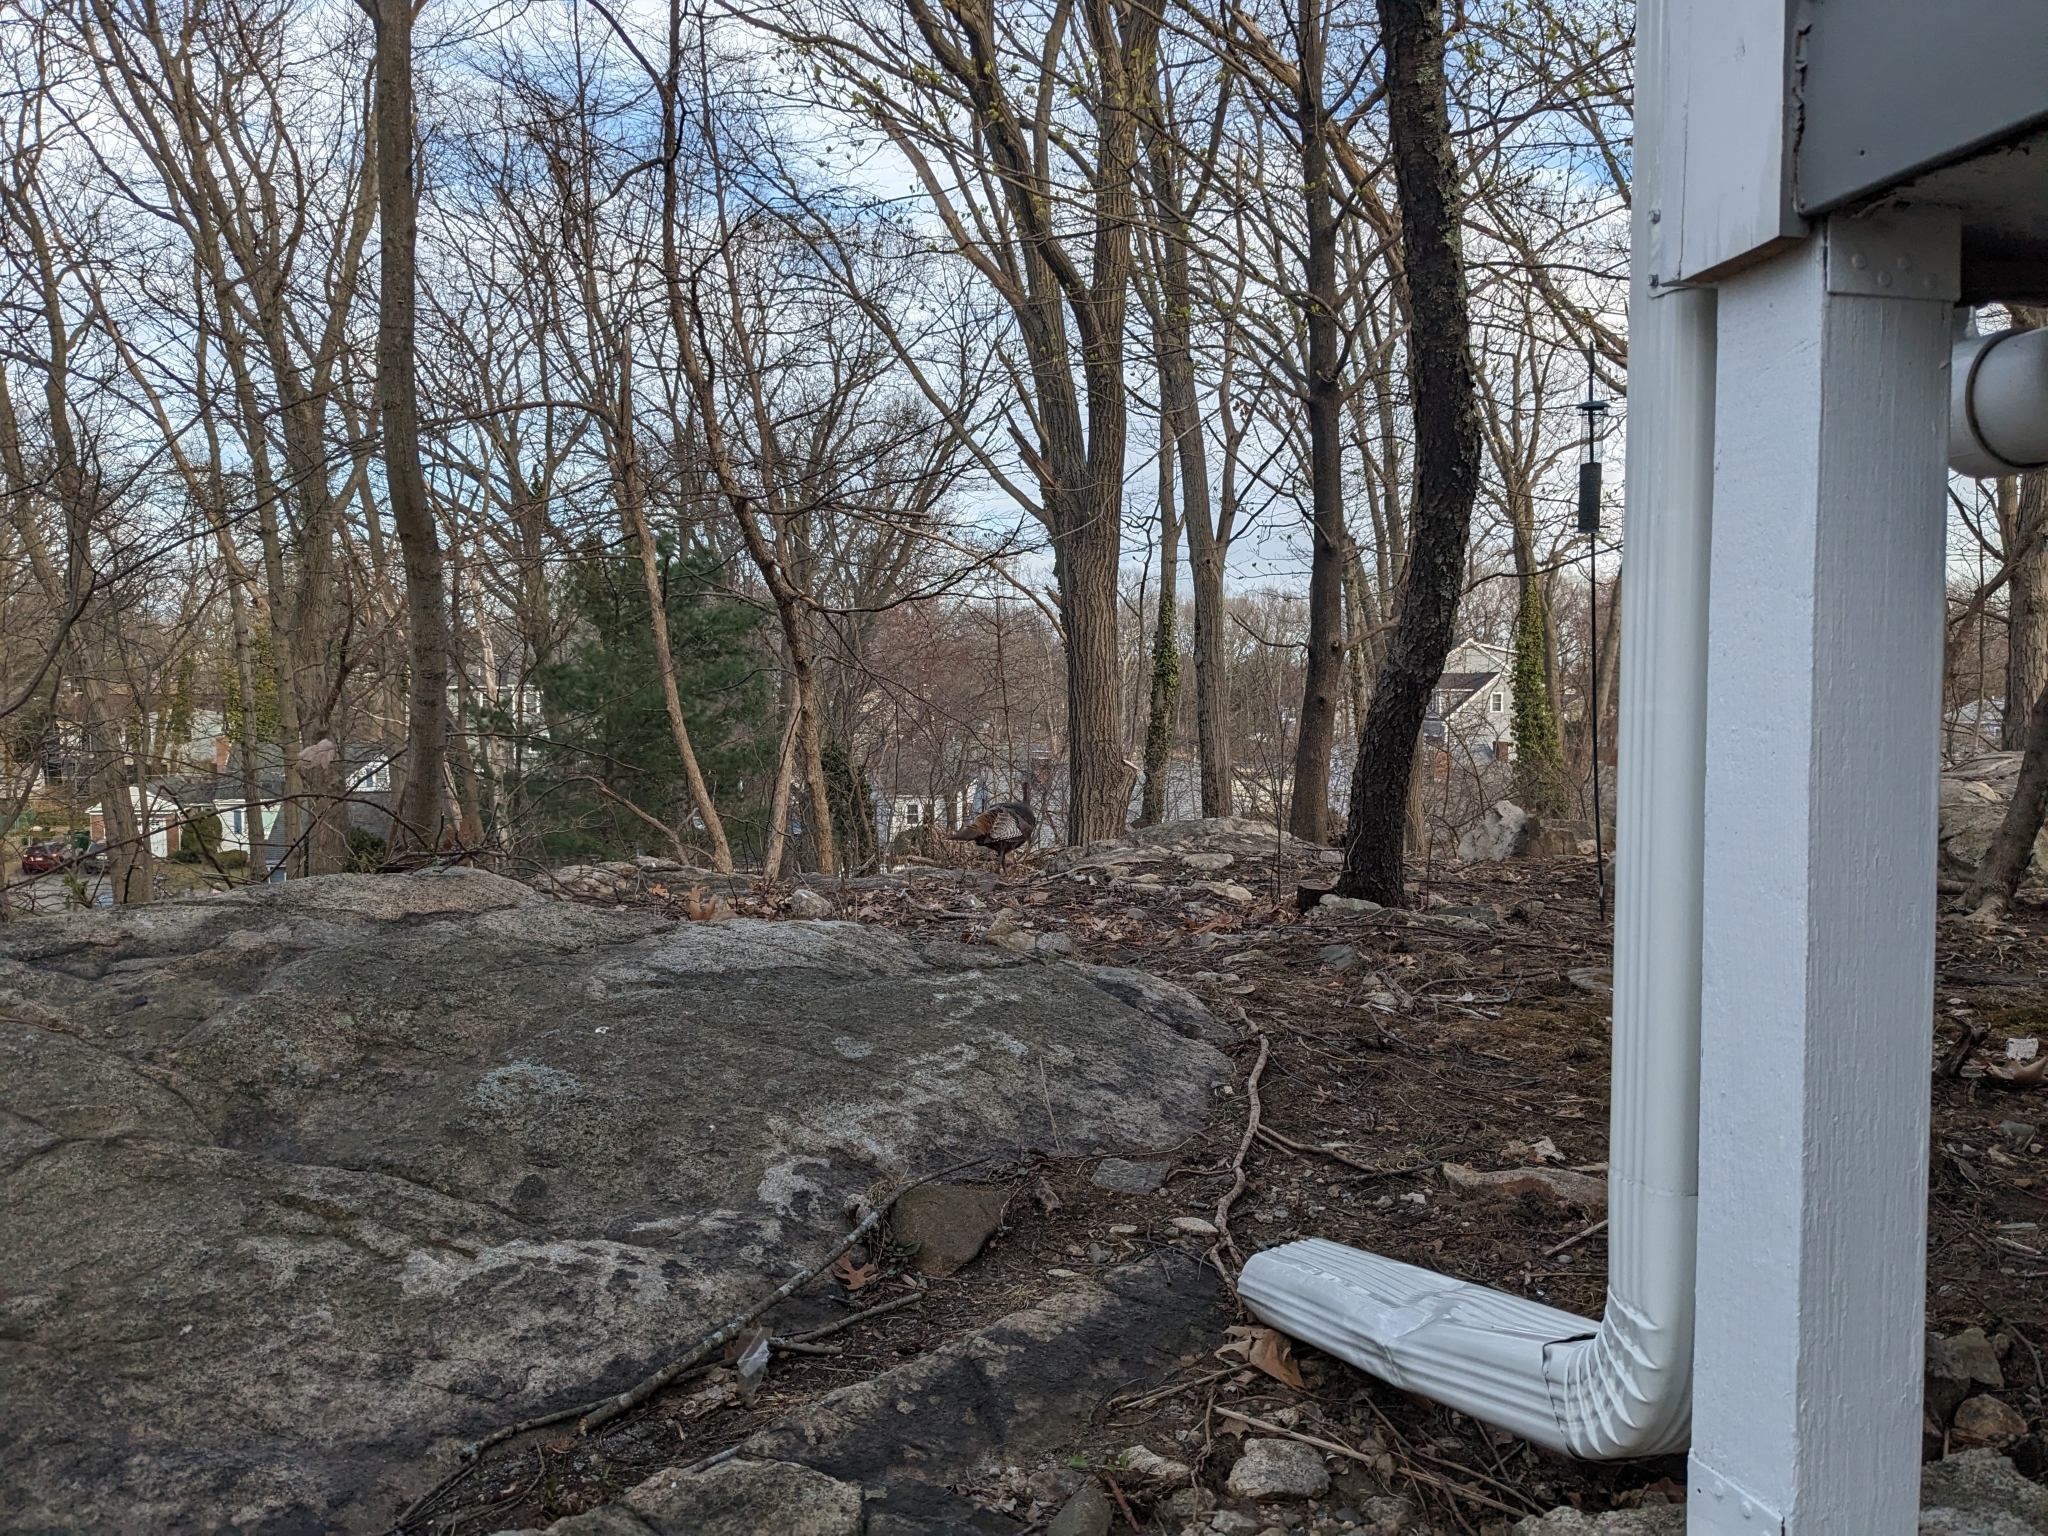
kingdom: Animalia
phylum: Chordata
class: Aves
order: Galliformes
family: Phasianidae
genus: Meleagris
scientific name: Meleagris gallopavo
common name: Wild turkey
